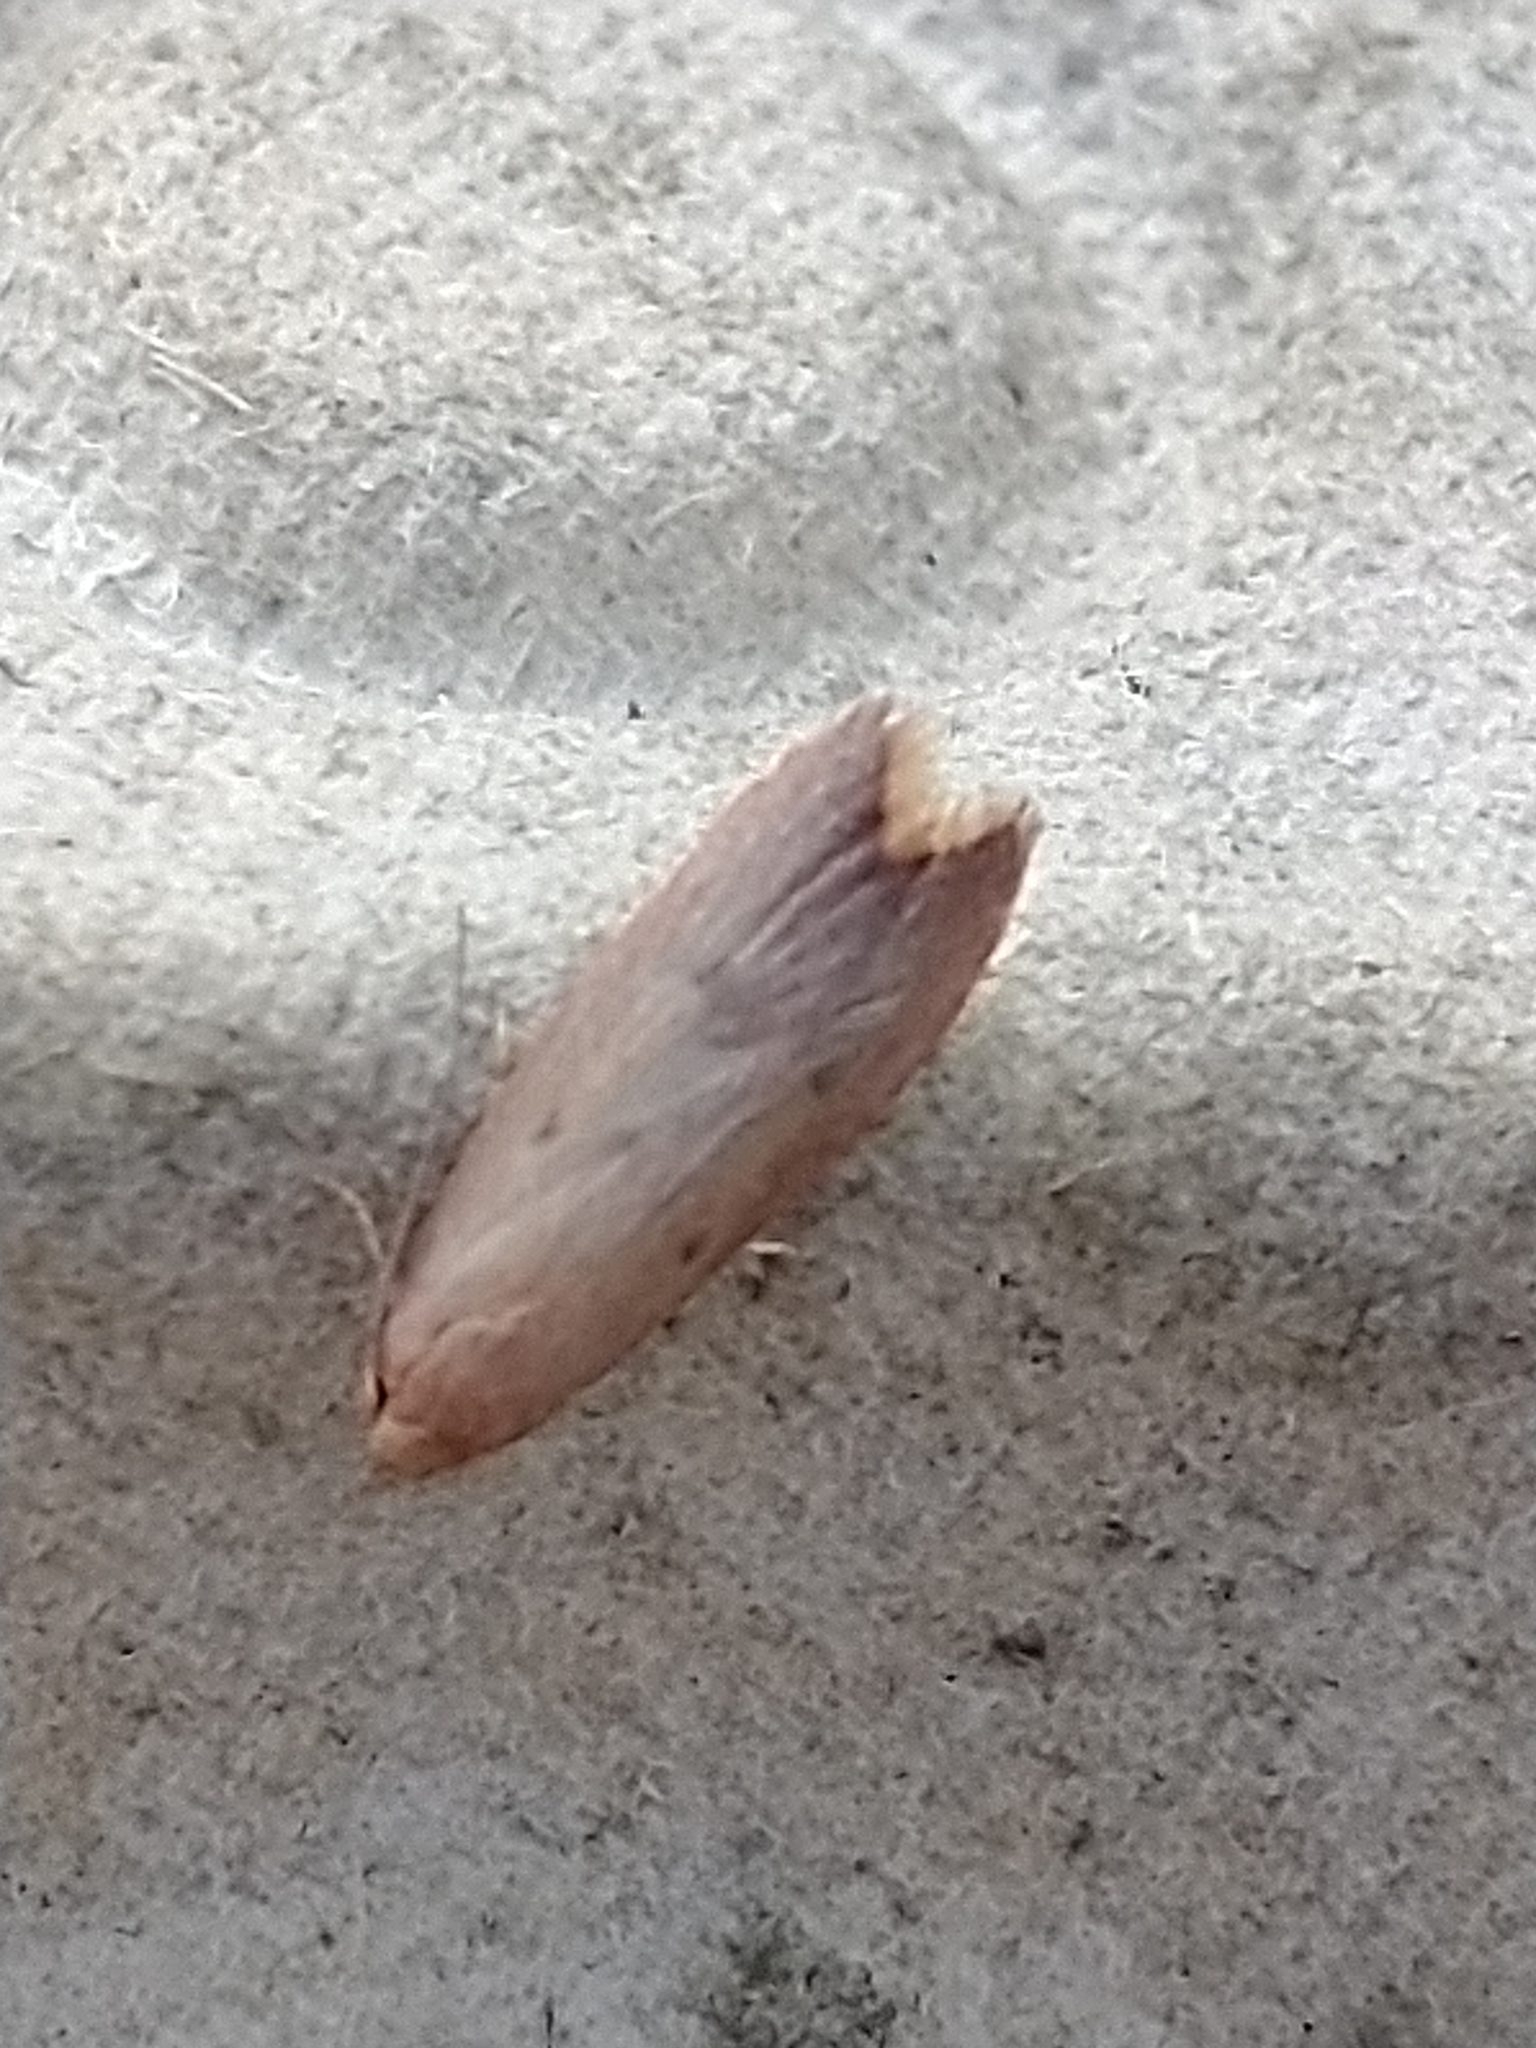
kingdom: Animalia
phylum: Arthropoda
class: Insecta
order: Lepidoptera
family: Oecophoridae
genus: Tachystola
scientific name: Tachystola acroxantha
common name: Ruddy streak
